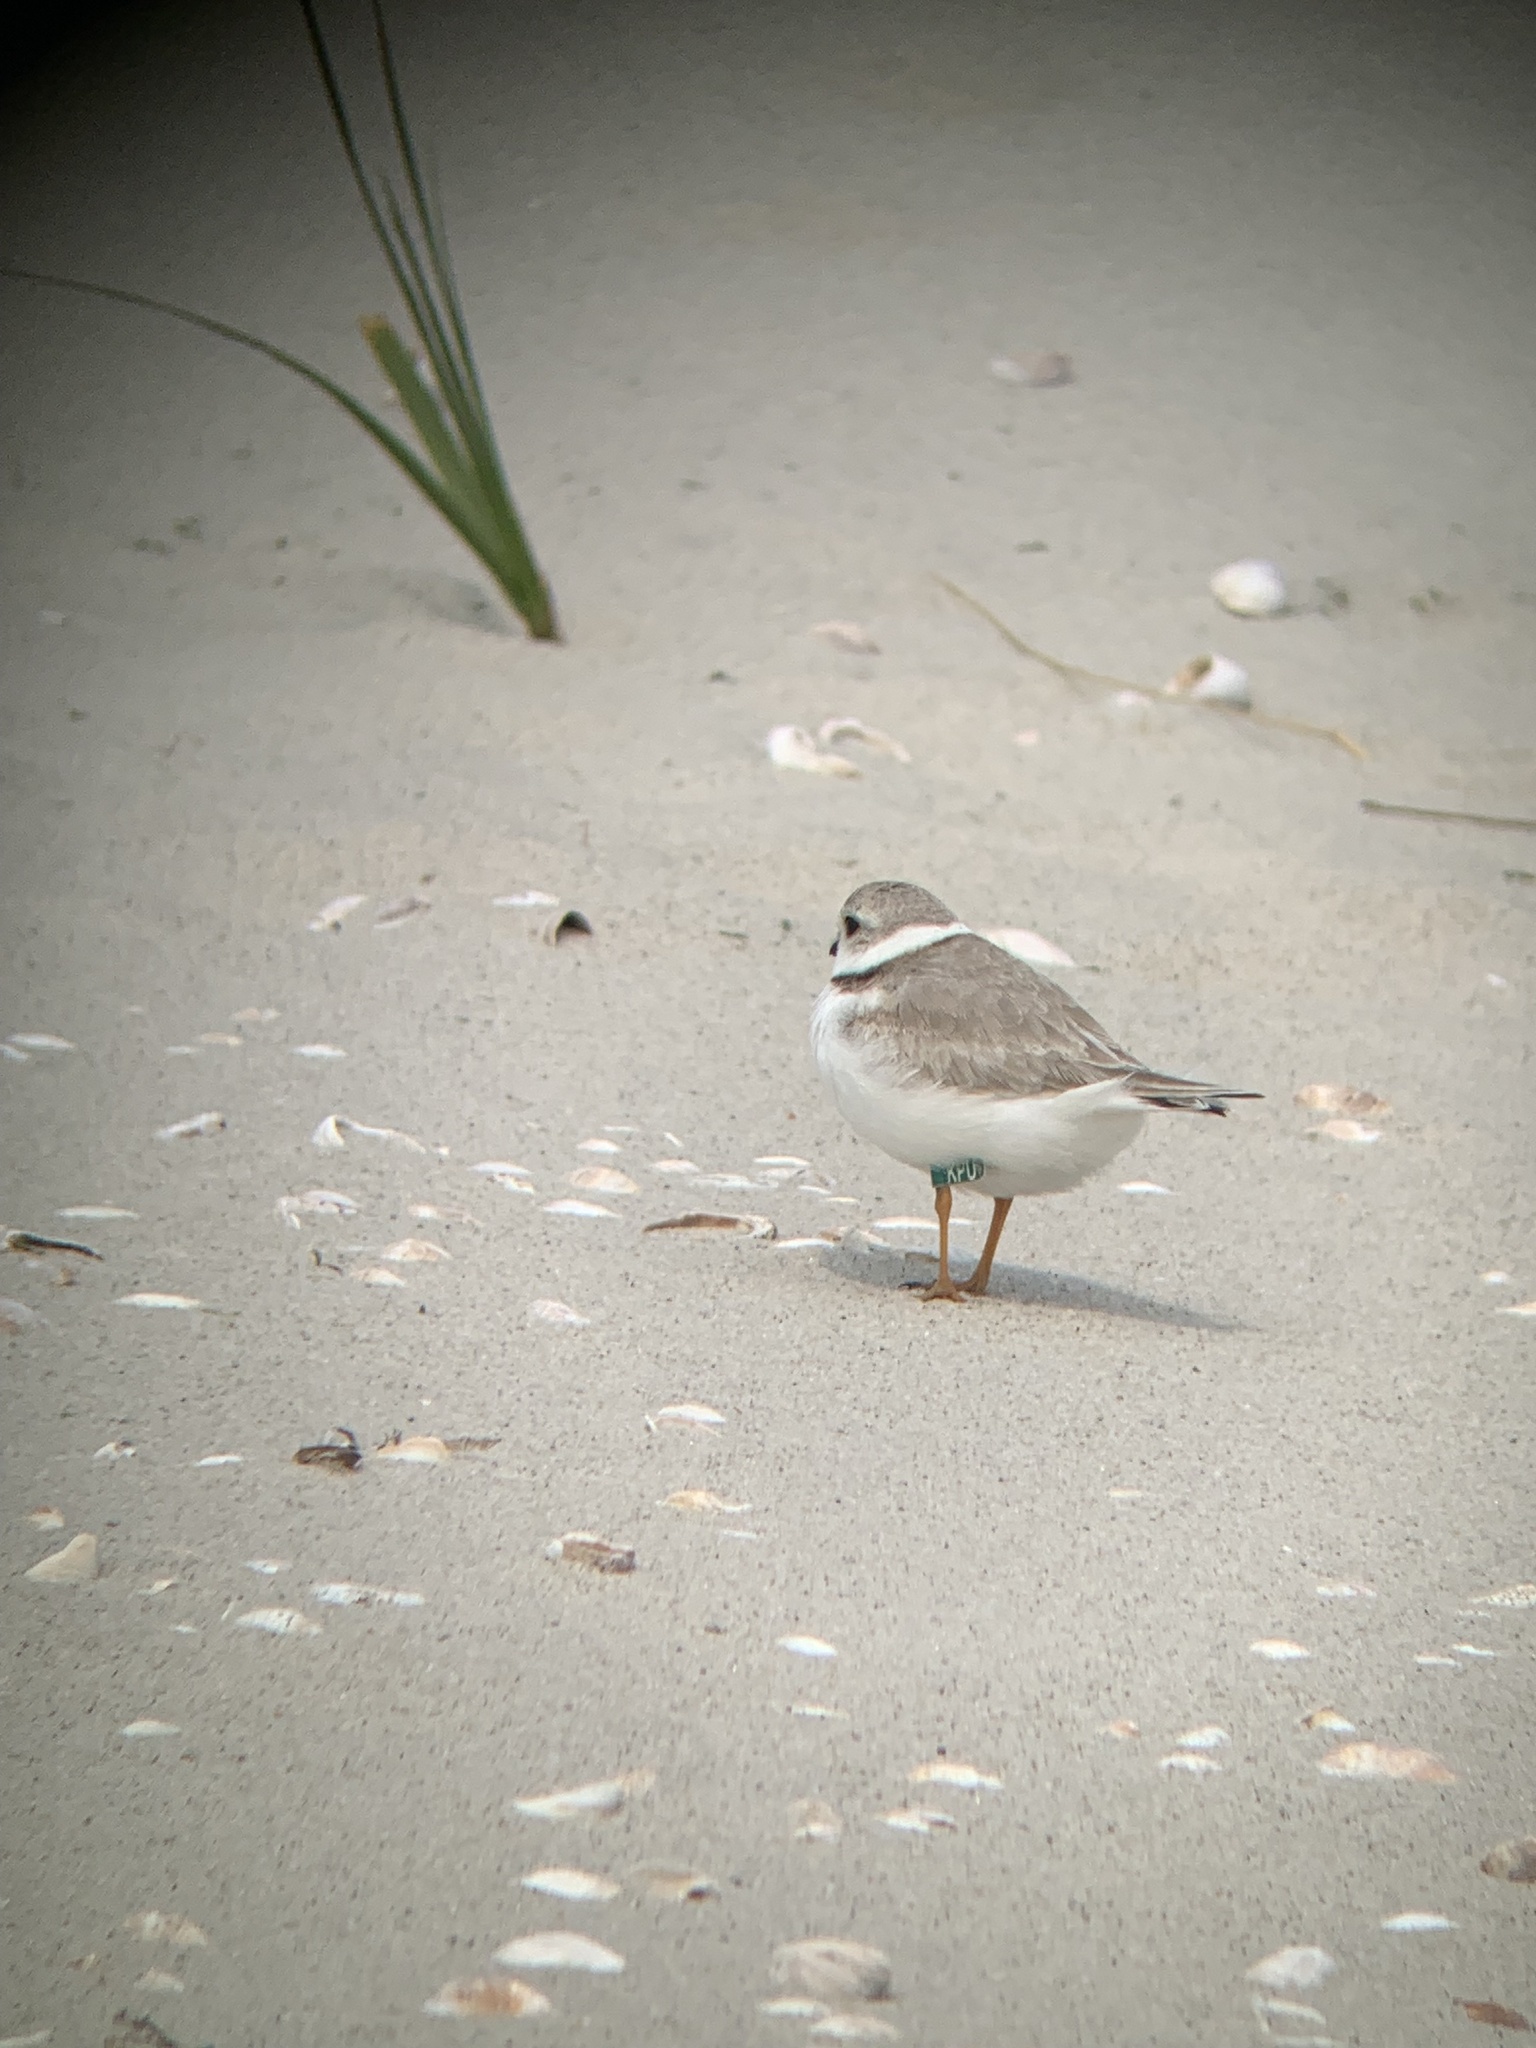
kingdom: Animalia
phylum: Chordata
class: Aves
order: Charadriiformes
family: Charadriidae
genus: Charadrius
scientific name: Charadrius melodus
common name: Piping plover
